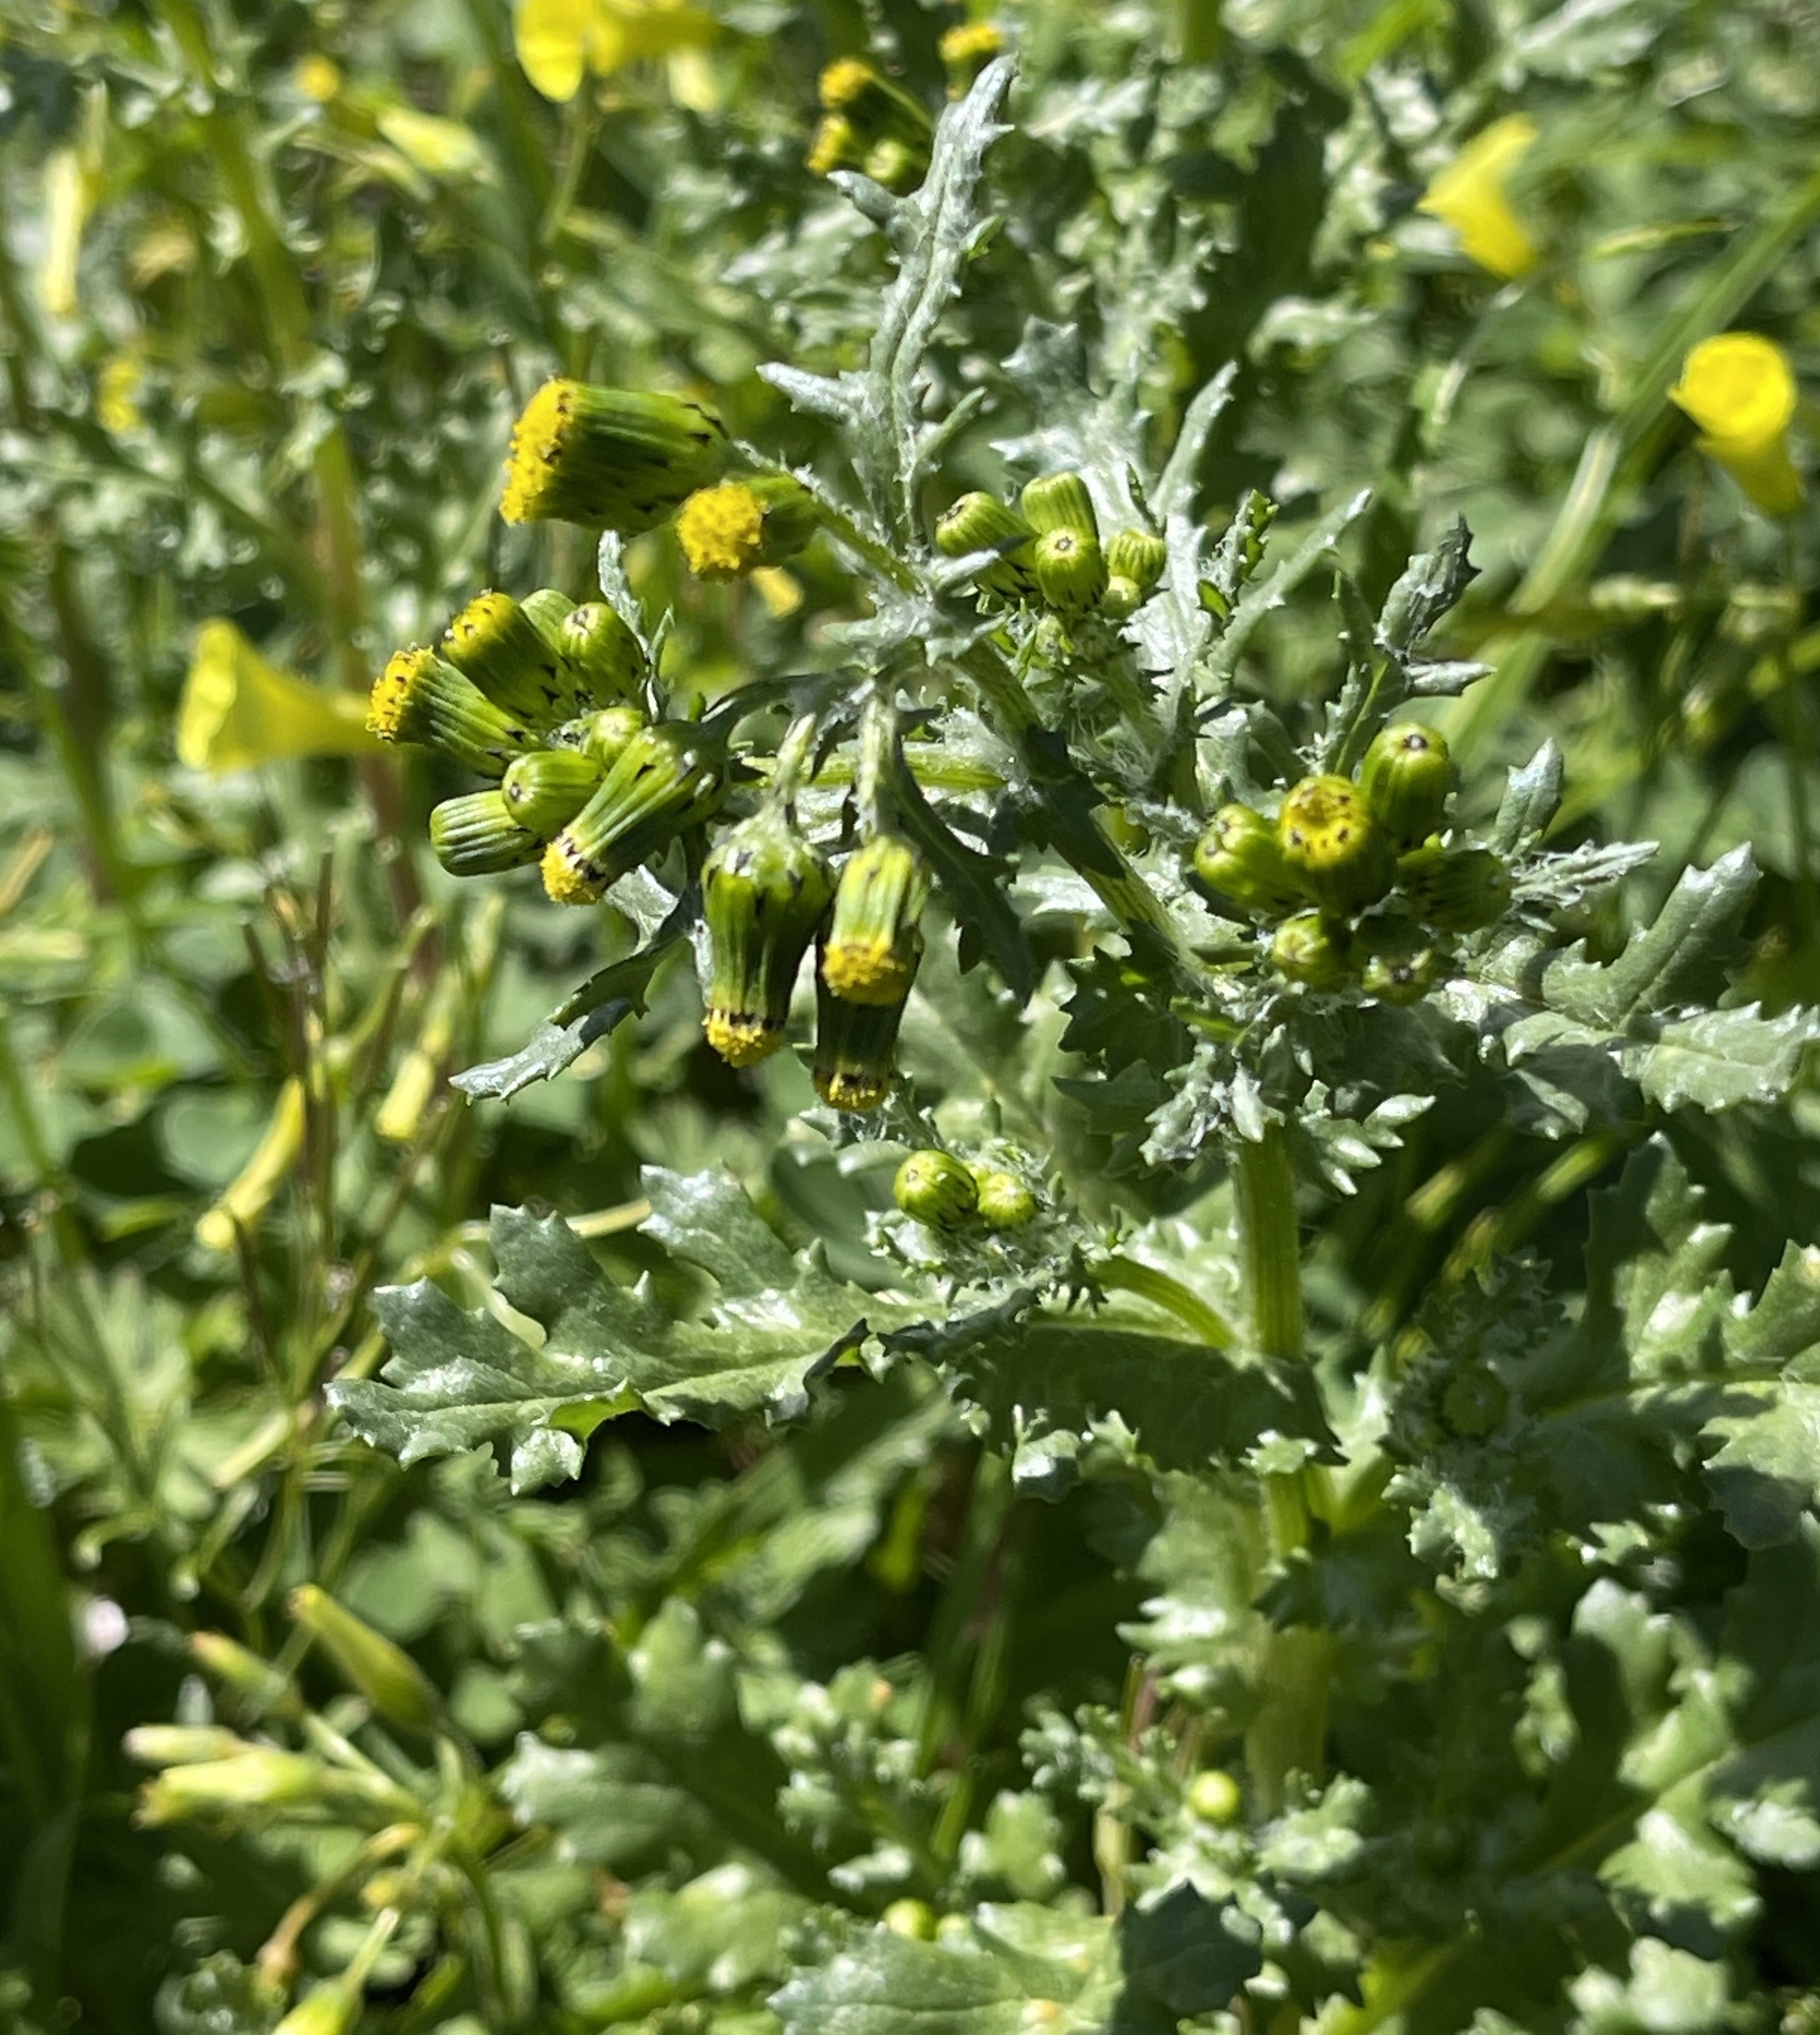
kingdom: Plantae
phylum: Tracheophyta
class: Magnoliopsida
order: Asterales
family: Asteraceae
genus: Senecio
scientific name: Senecio vulgaris
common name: Old-man-in-the-spring
